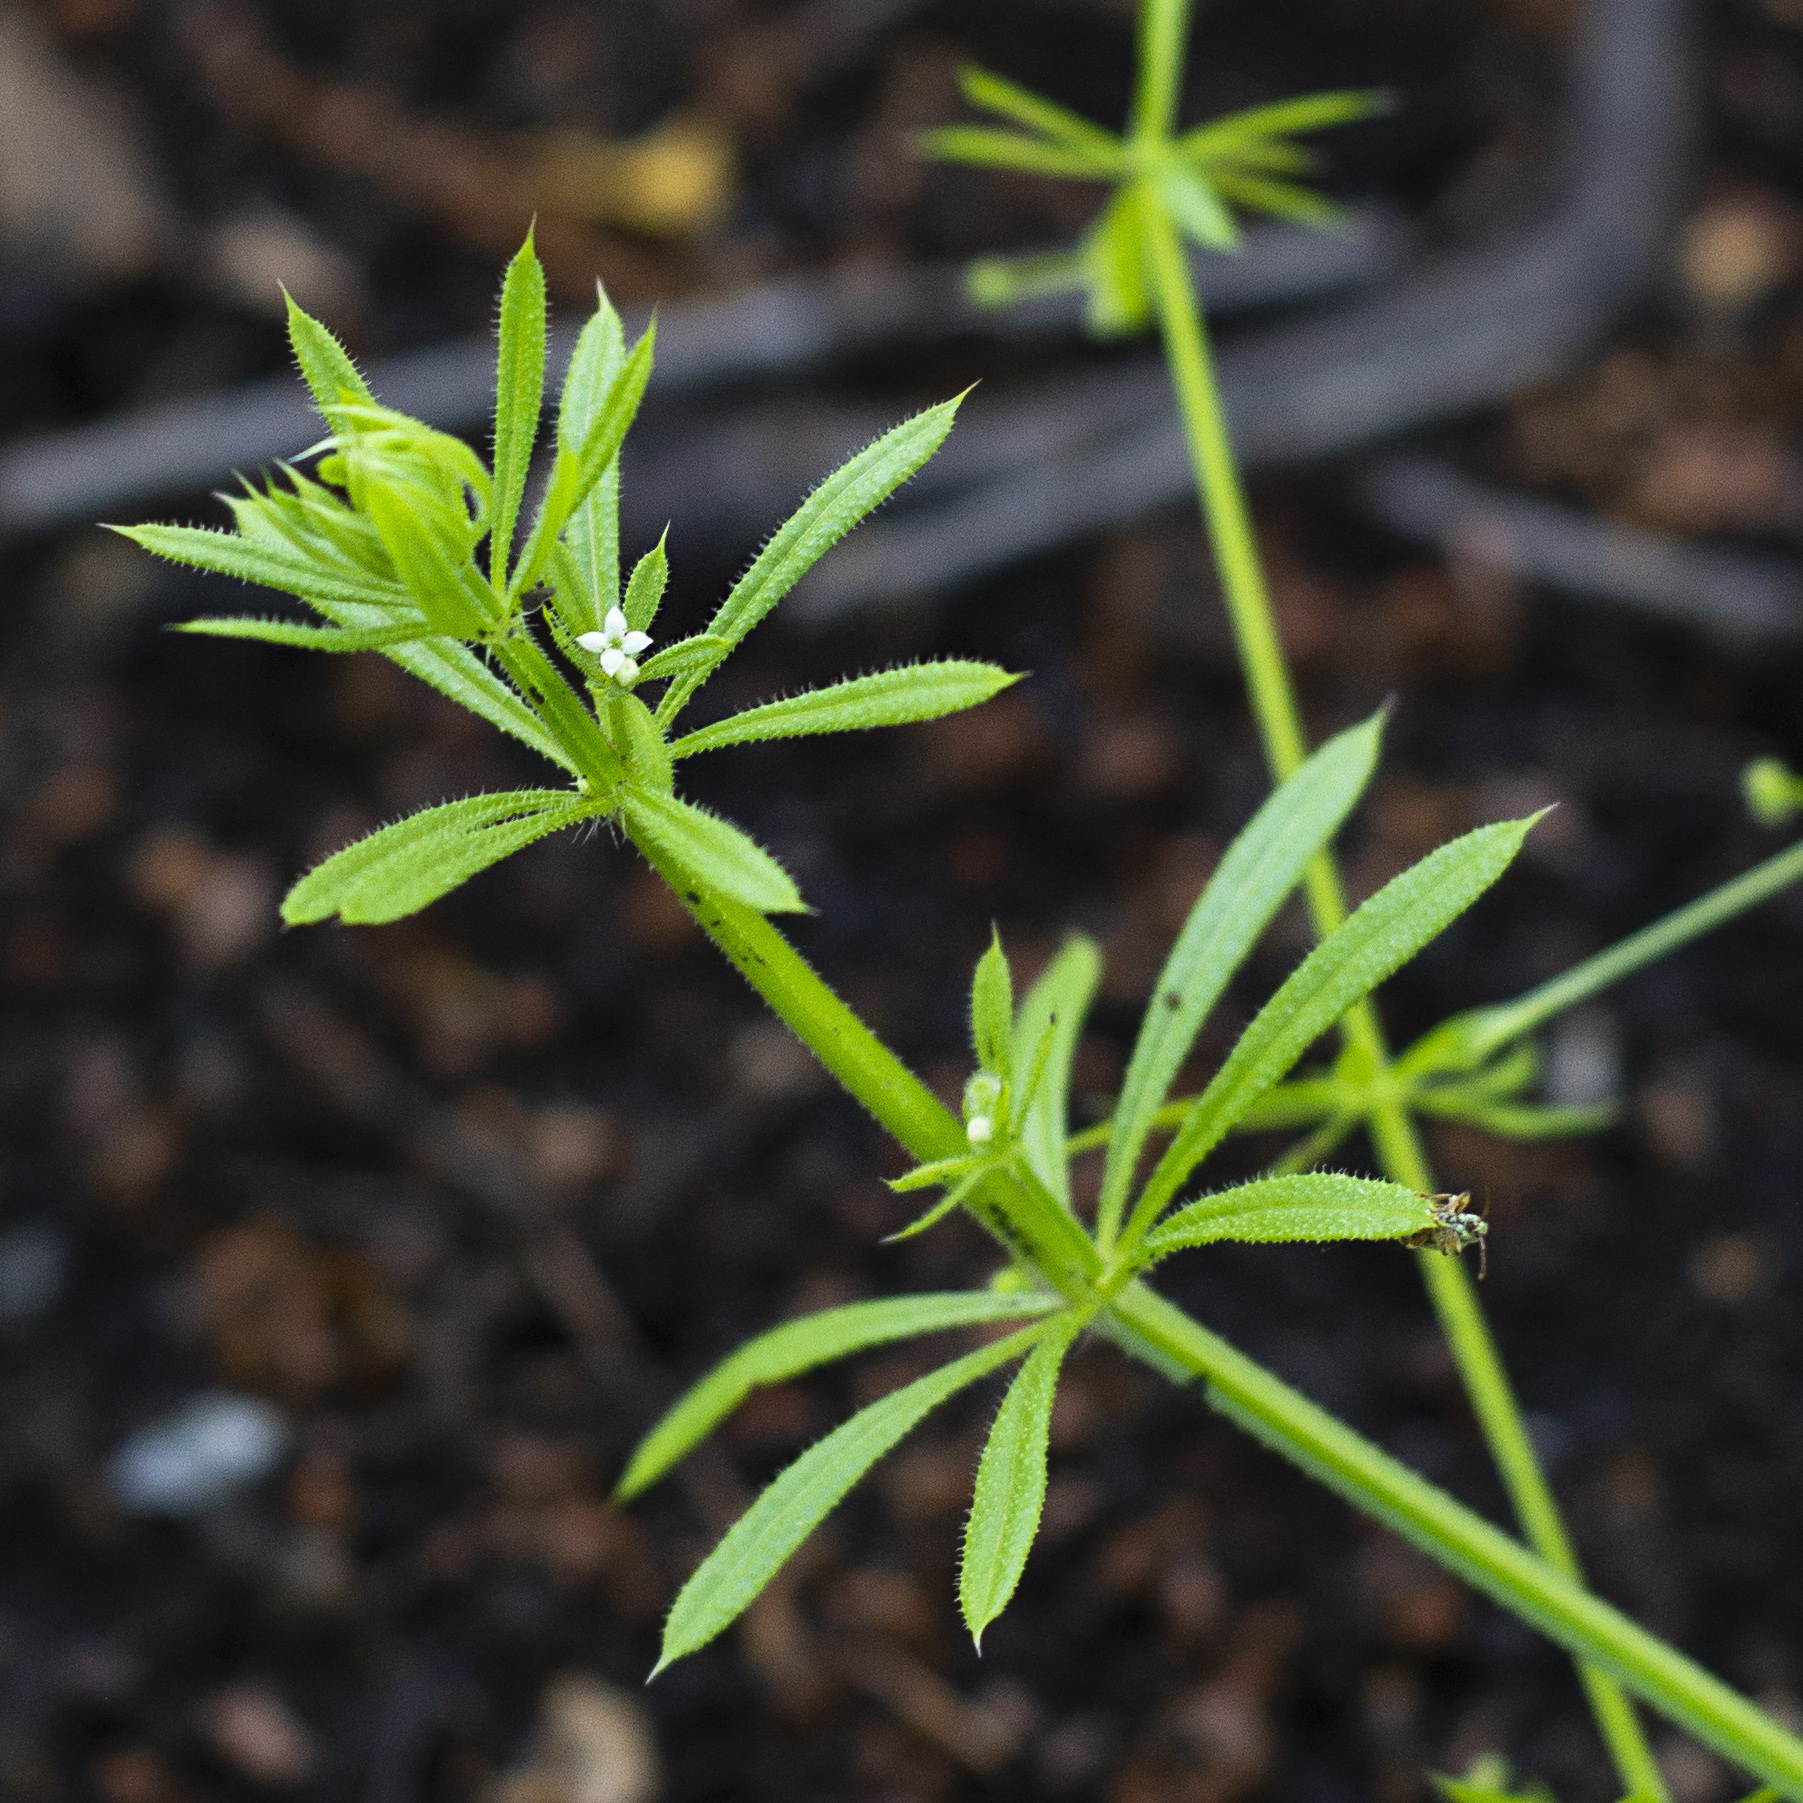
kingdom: Plantae
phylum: Tracheophyta
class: Magnoliopsida
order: Gentianales
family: Rubiaceae
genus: Galium
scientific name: Galium aparine
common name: Cleavers
